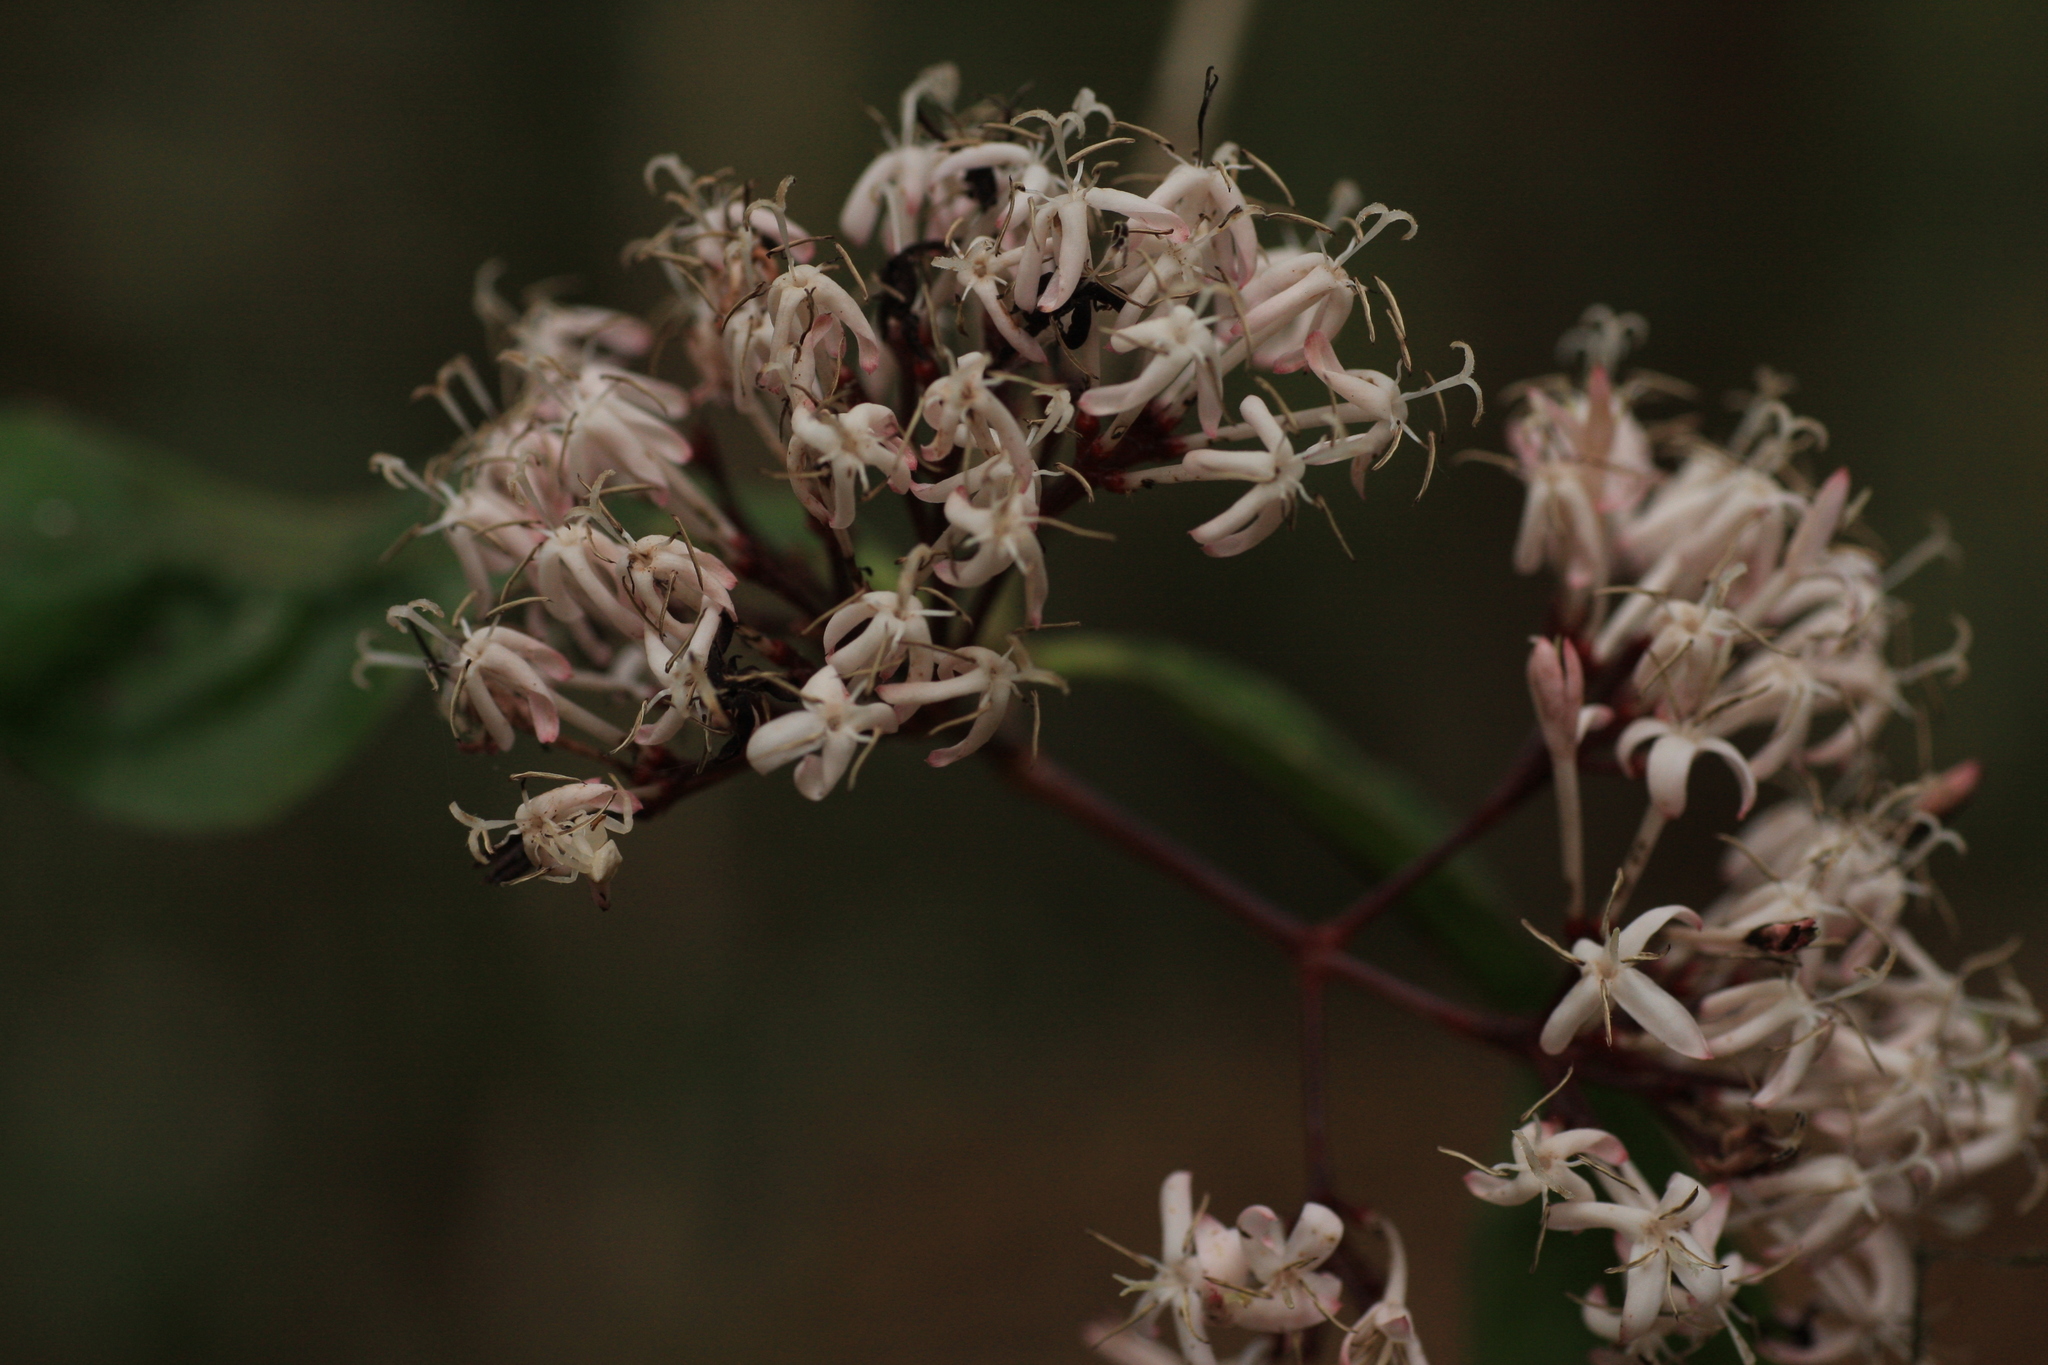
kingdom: Plantae
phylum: Tracheophyta
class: Magnoliopsida
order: Gentianales
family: Rubiaceae
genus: Ixora
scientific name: Ixora nigricans
